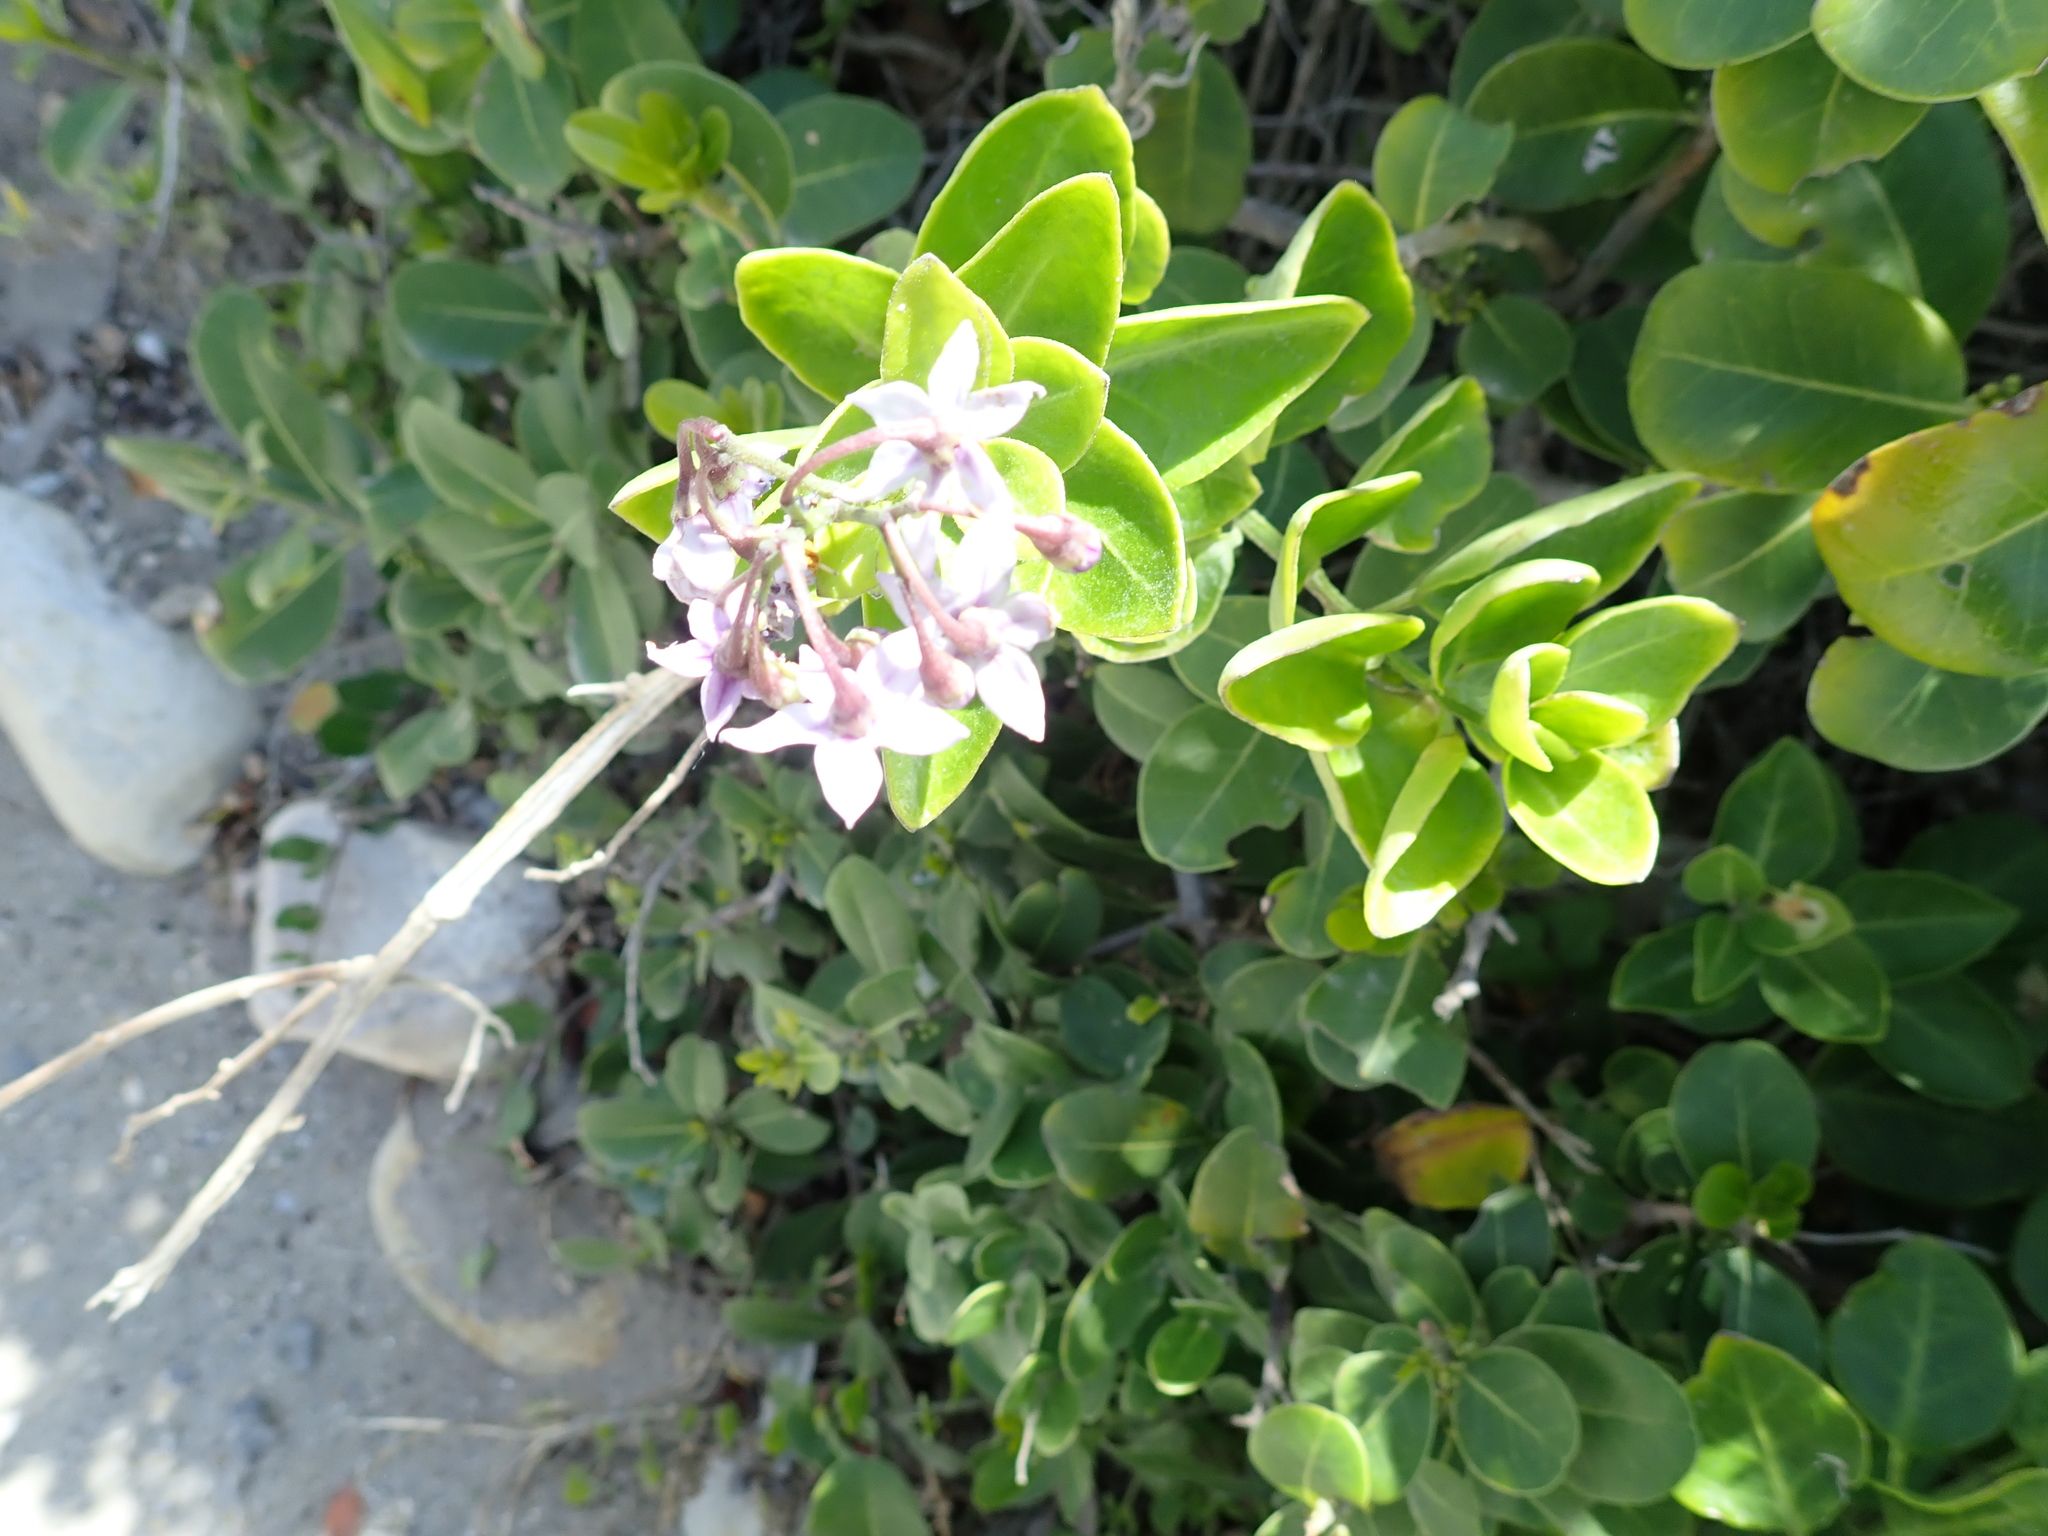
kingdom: Plantae
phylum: Tracheophyta
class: Magnoliopsida
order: Solanales
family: Solanaceae
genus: Solanum
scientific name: Solanum africanum
